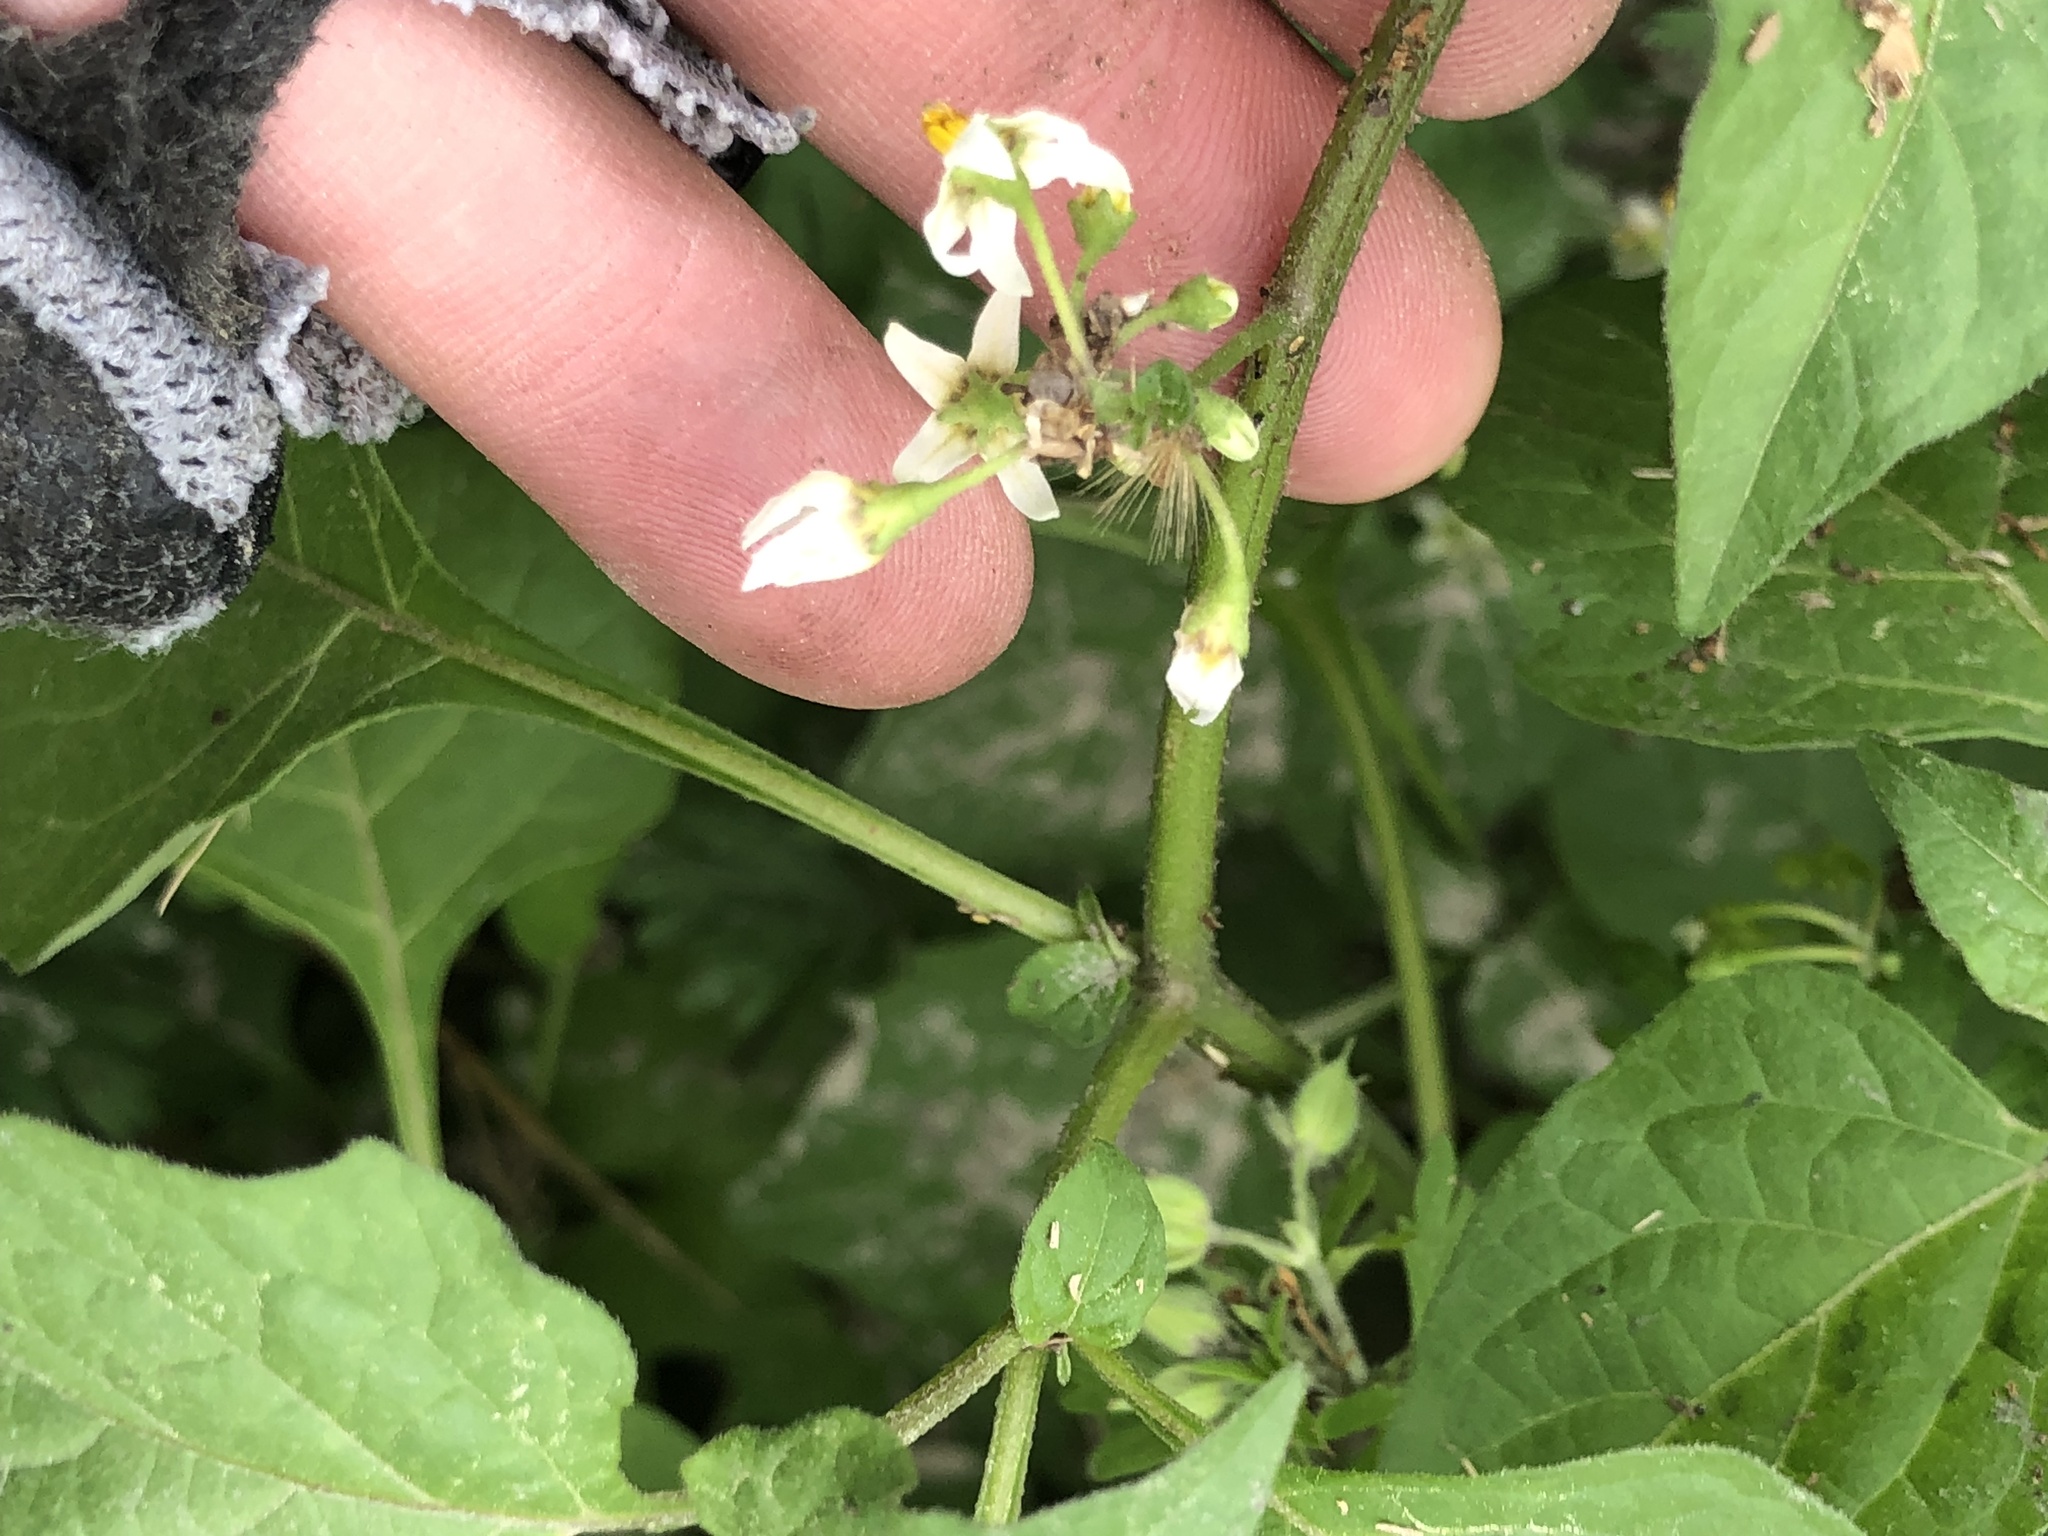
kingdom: Plantae
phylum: Tracheophyta
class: Magnoliopsida
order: Solanales
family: Solanaceae
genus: Solanum
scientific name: Solanum nigrescens
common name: Divine nightshade
